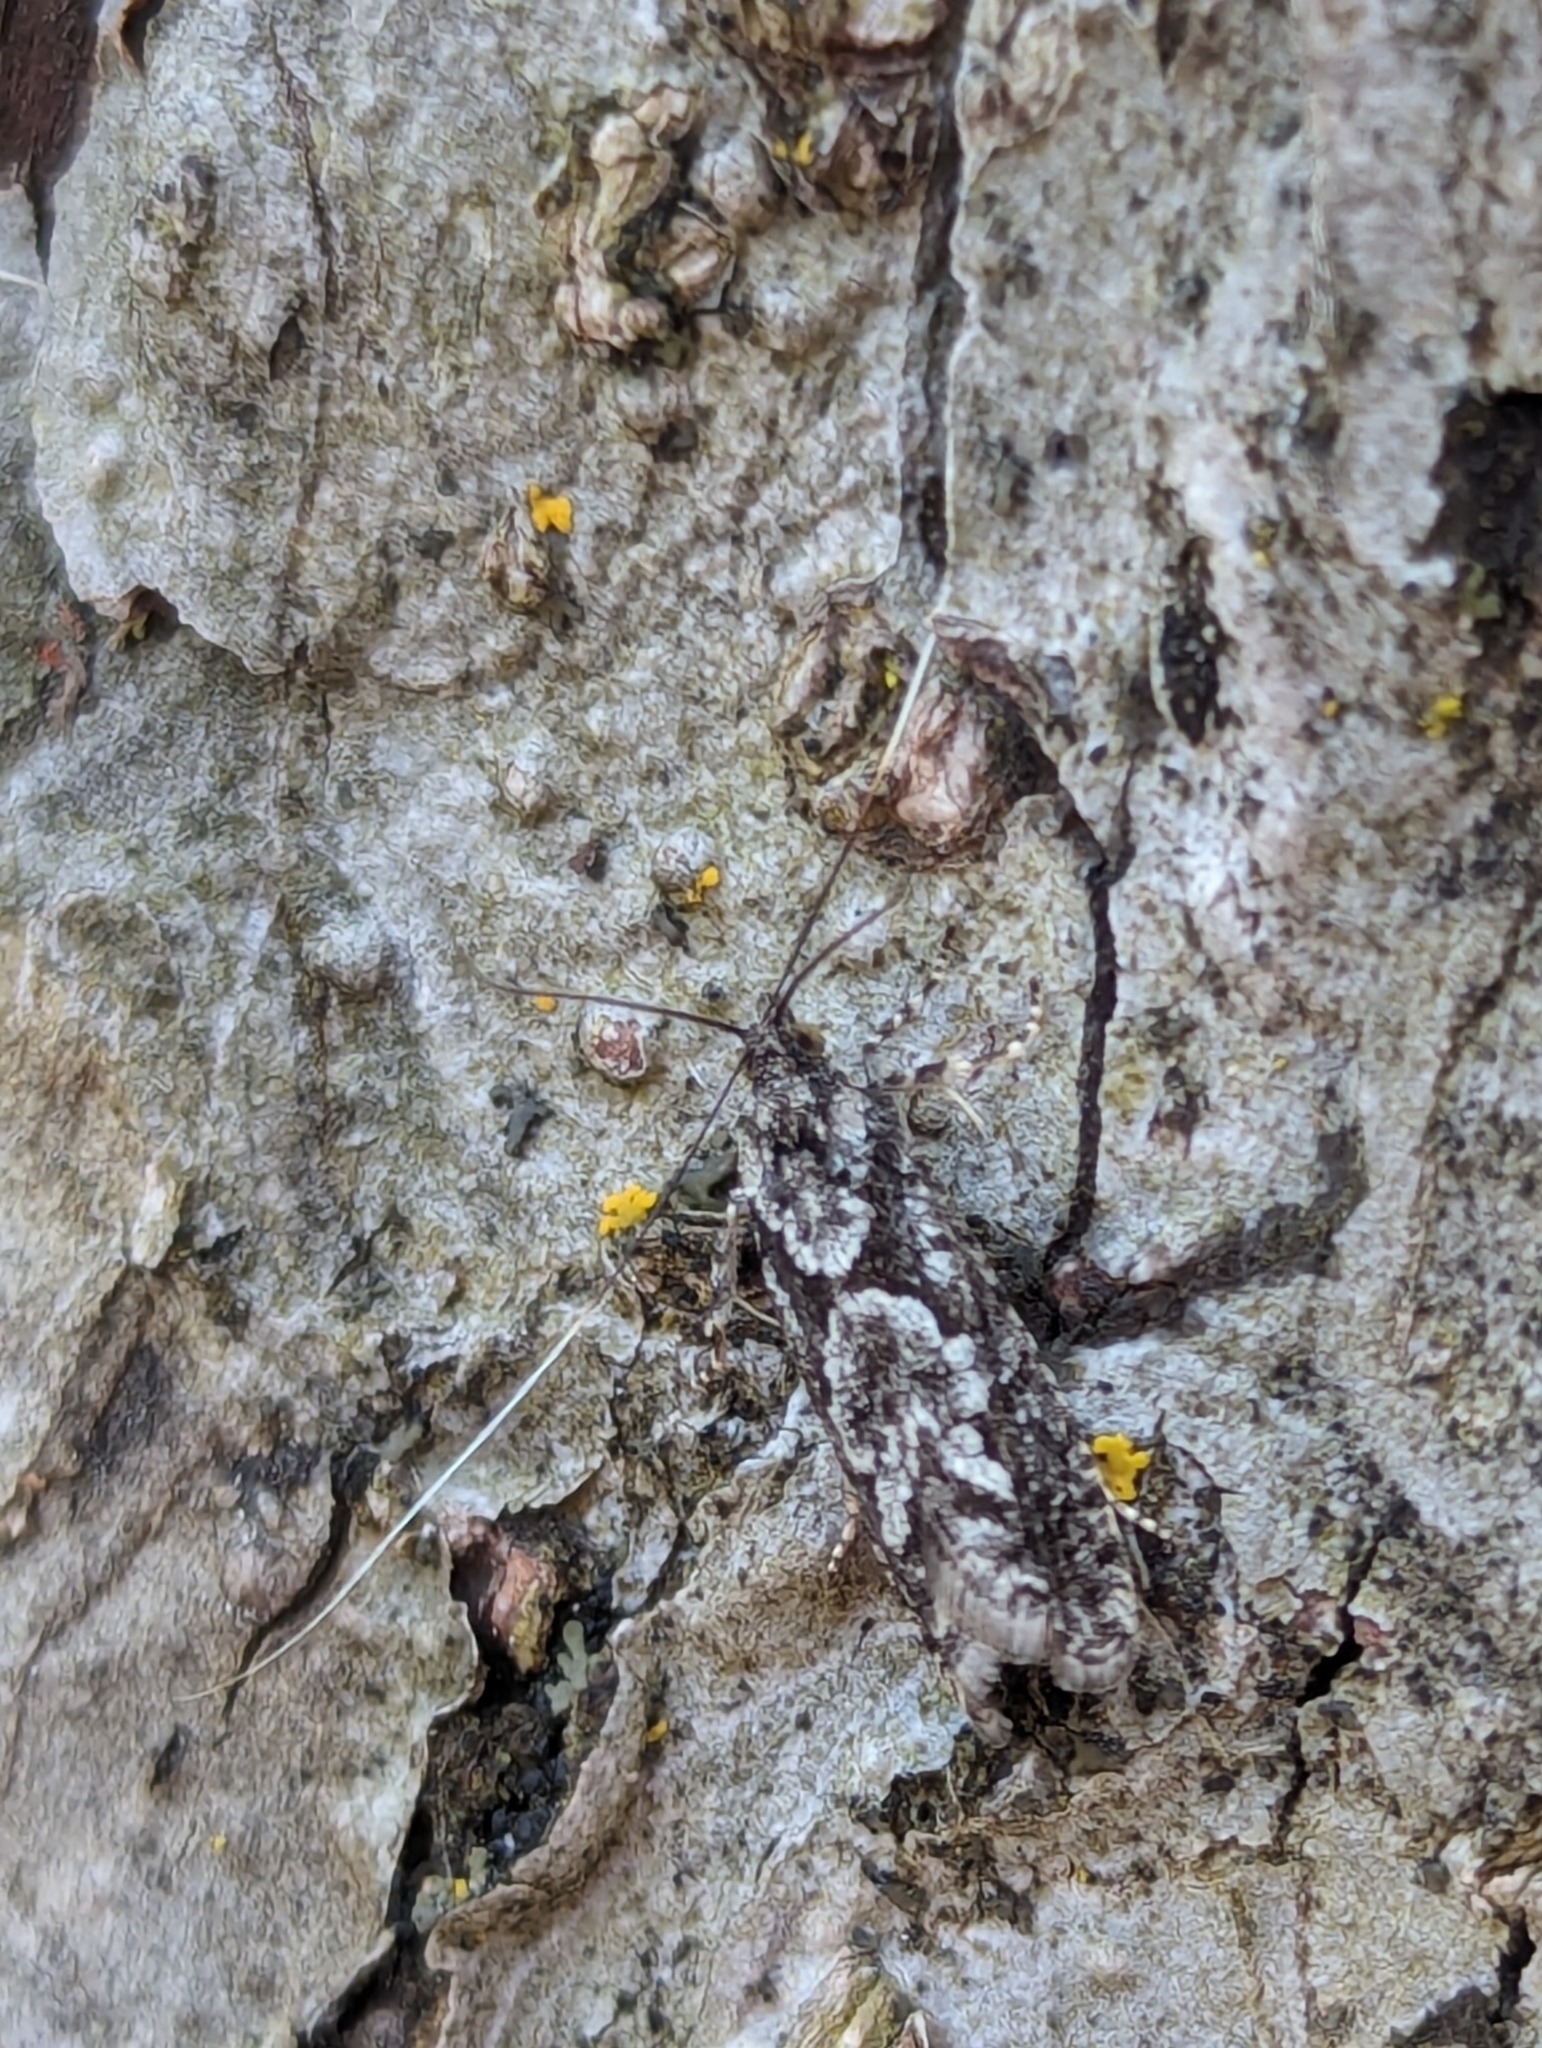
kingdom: Animalia
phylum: Arthropoda
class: Insecta
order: Lepidoptera
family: Tortricidae
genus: Catastega
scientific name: Catastega aceriella
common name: Maple trumpet skeletonizer moth
